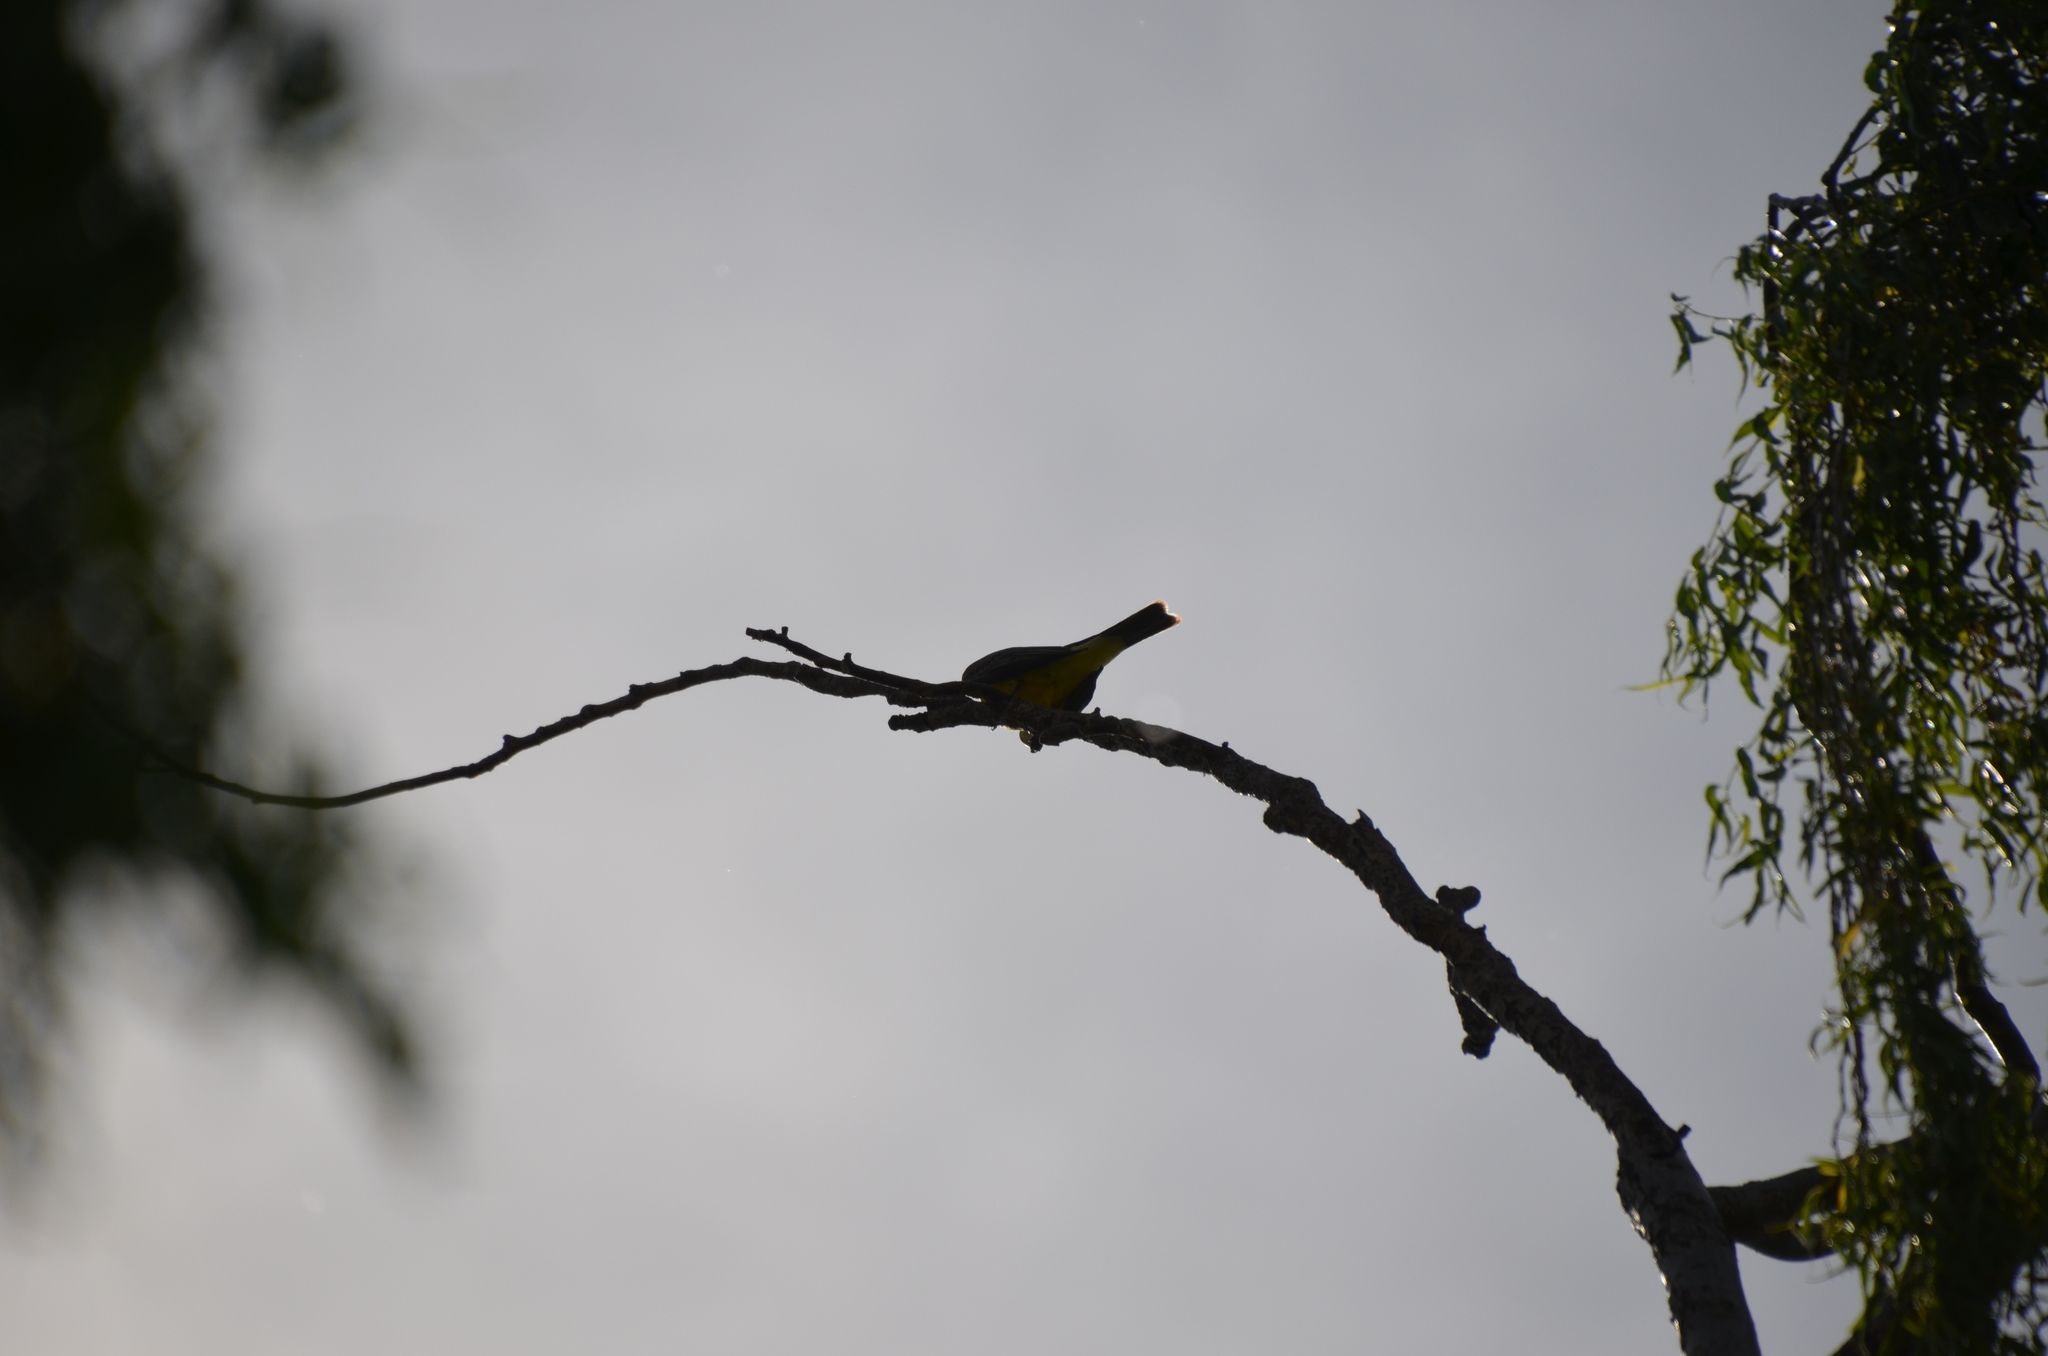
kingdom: Animalia
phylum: Chordata
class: Aves
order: Passeriformes
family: Tyrannidae
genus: Tyrannus
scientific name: Tyrannus melancholicus
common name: Tropical kingbird
